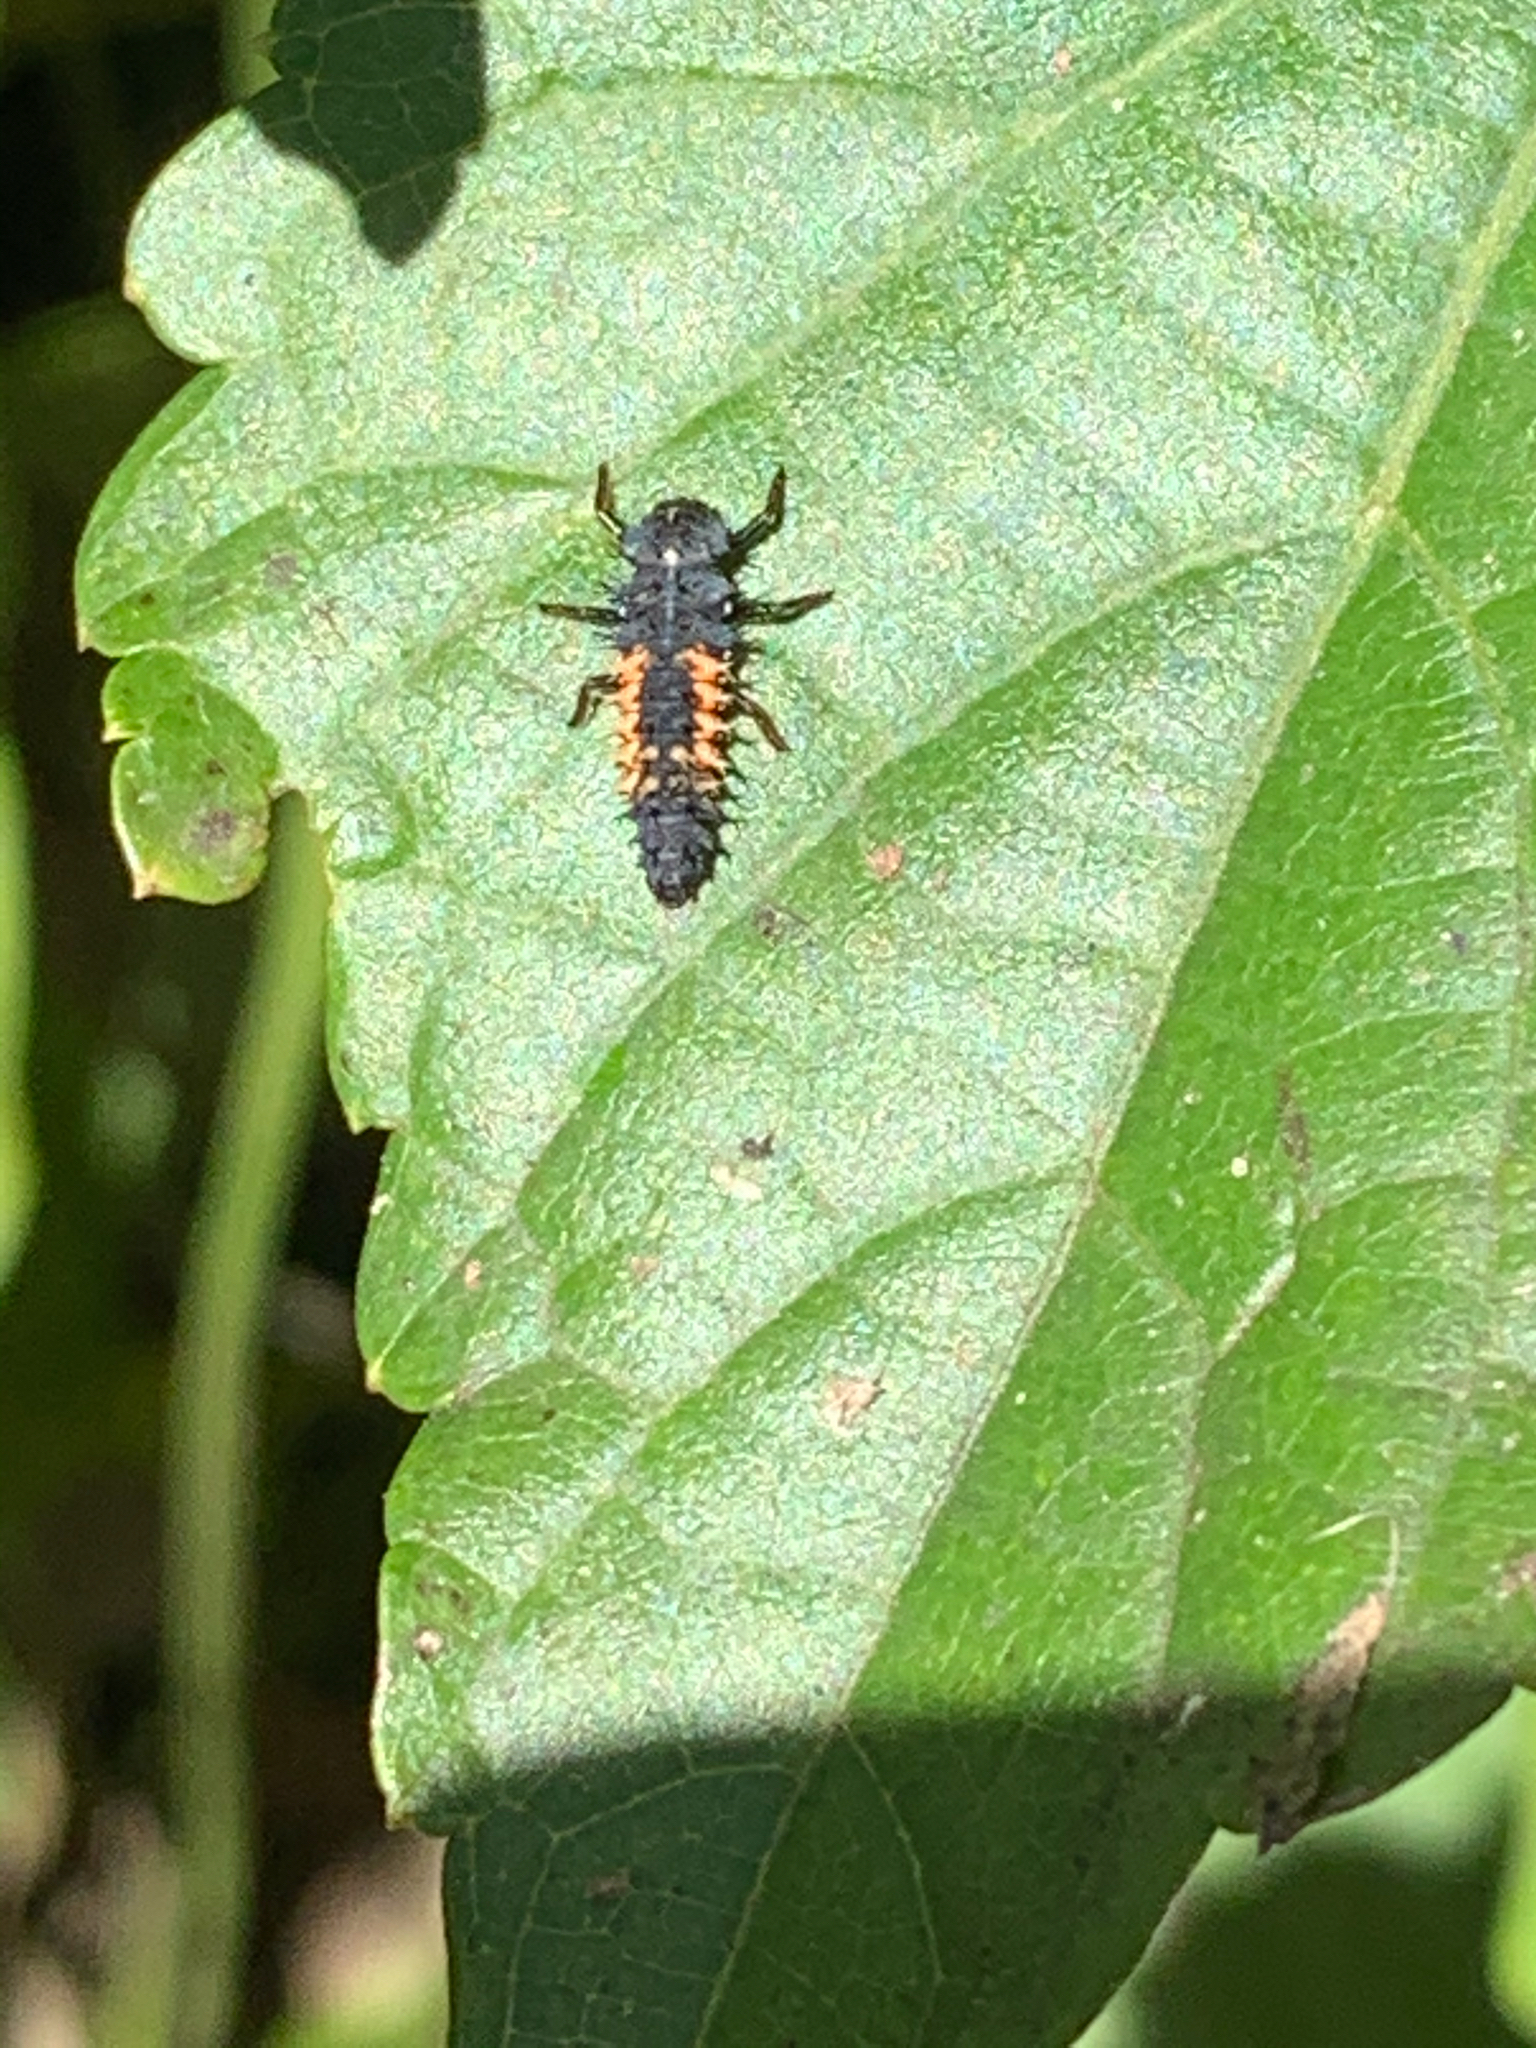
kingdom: Animalia
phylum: Arthropoda
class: Insecta
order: Coleoptera
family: Coccinellidae
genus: Harmonia
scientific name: Harmonia axyridis
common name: Harlequin ladybird
